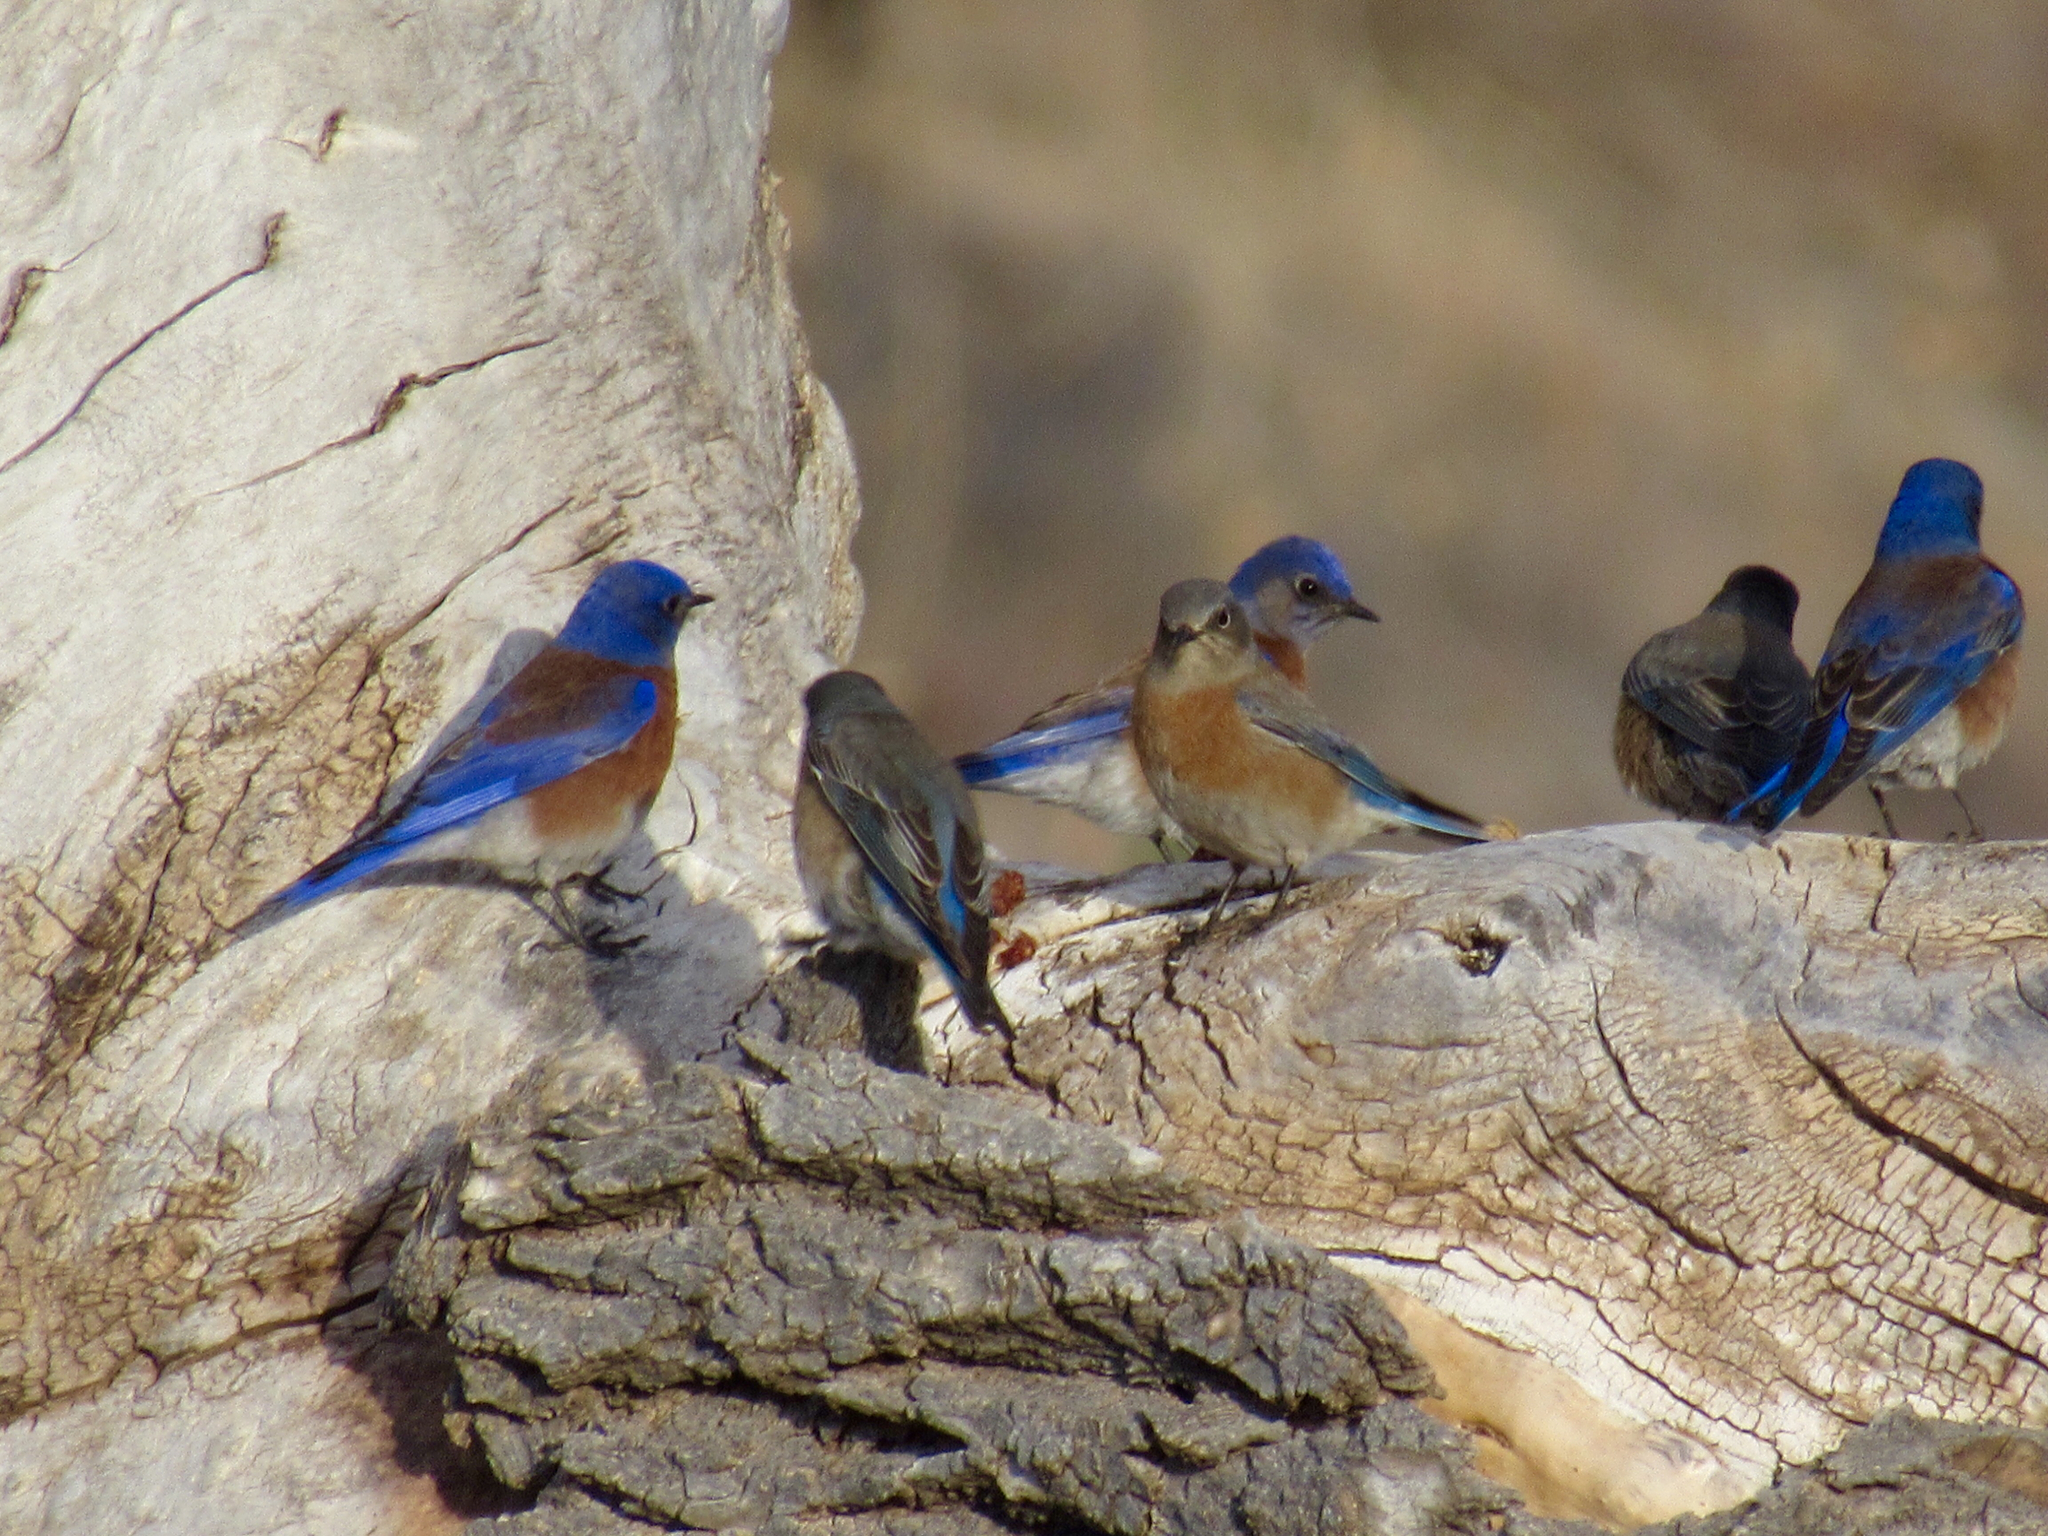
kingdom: Animalia
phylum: Chordata
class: Aves
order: Passeriformes
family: Turdidae
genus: Sialia
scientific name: Sialia mexicana
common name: Western bluebird
